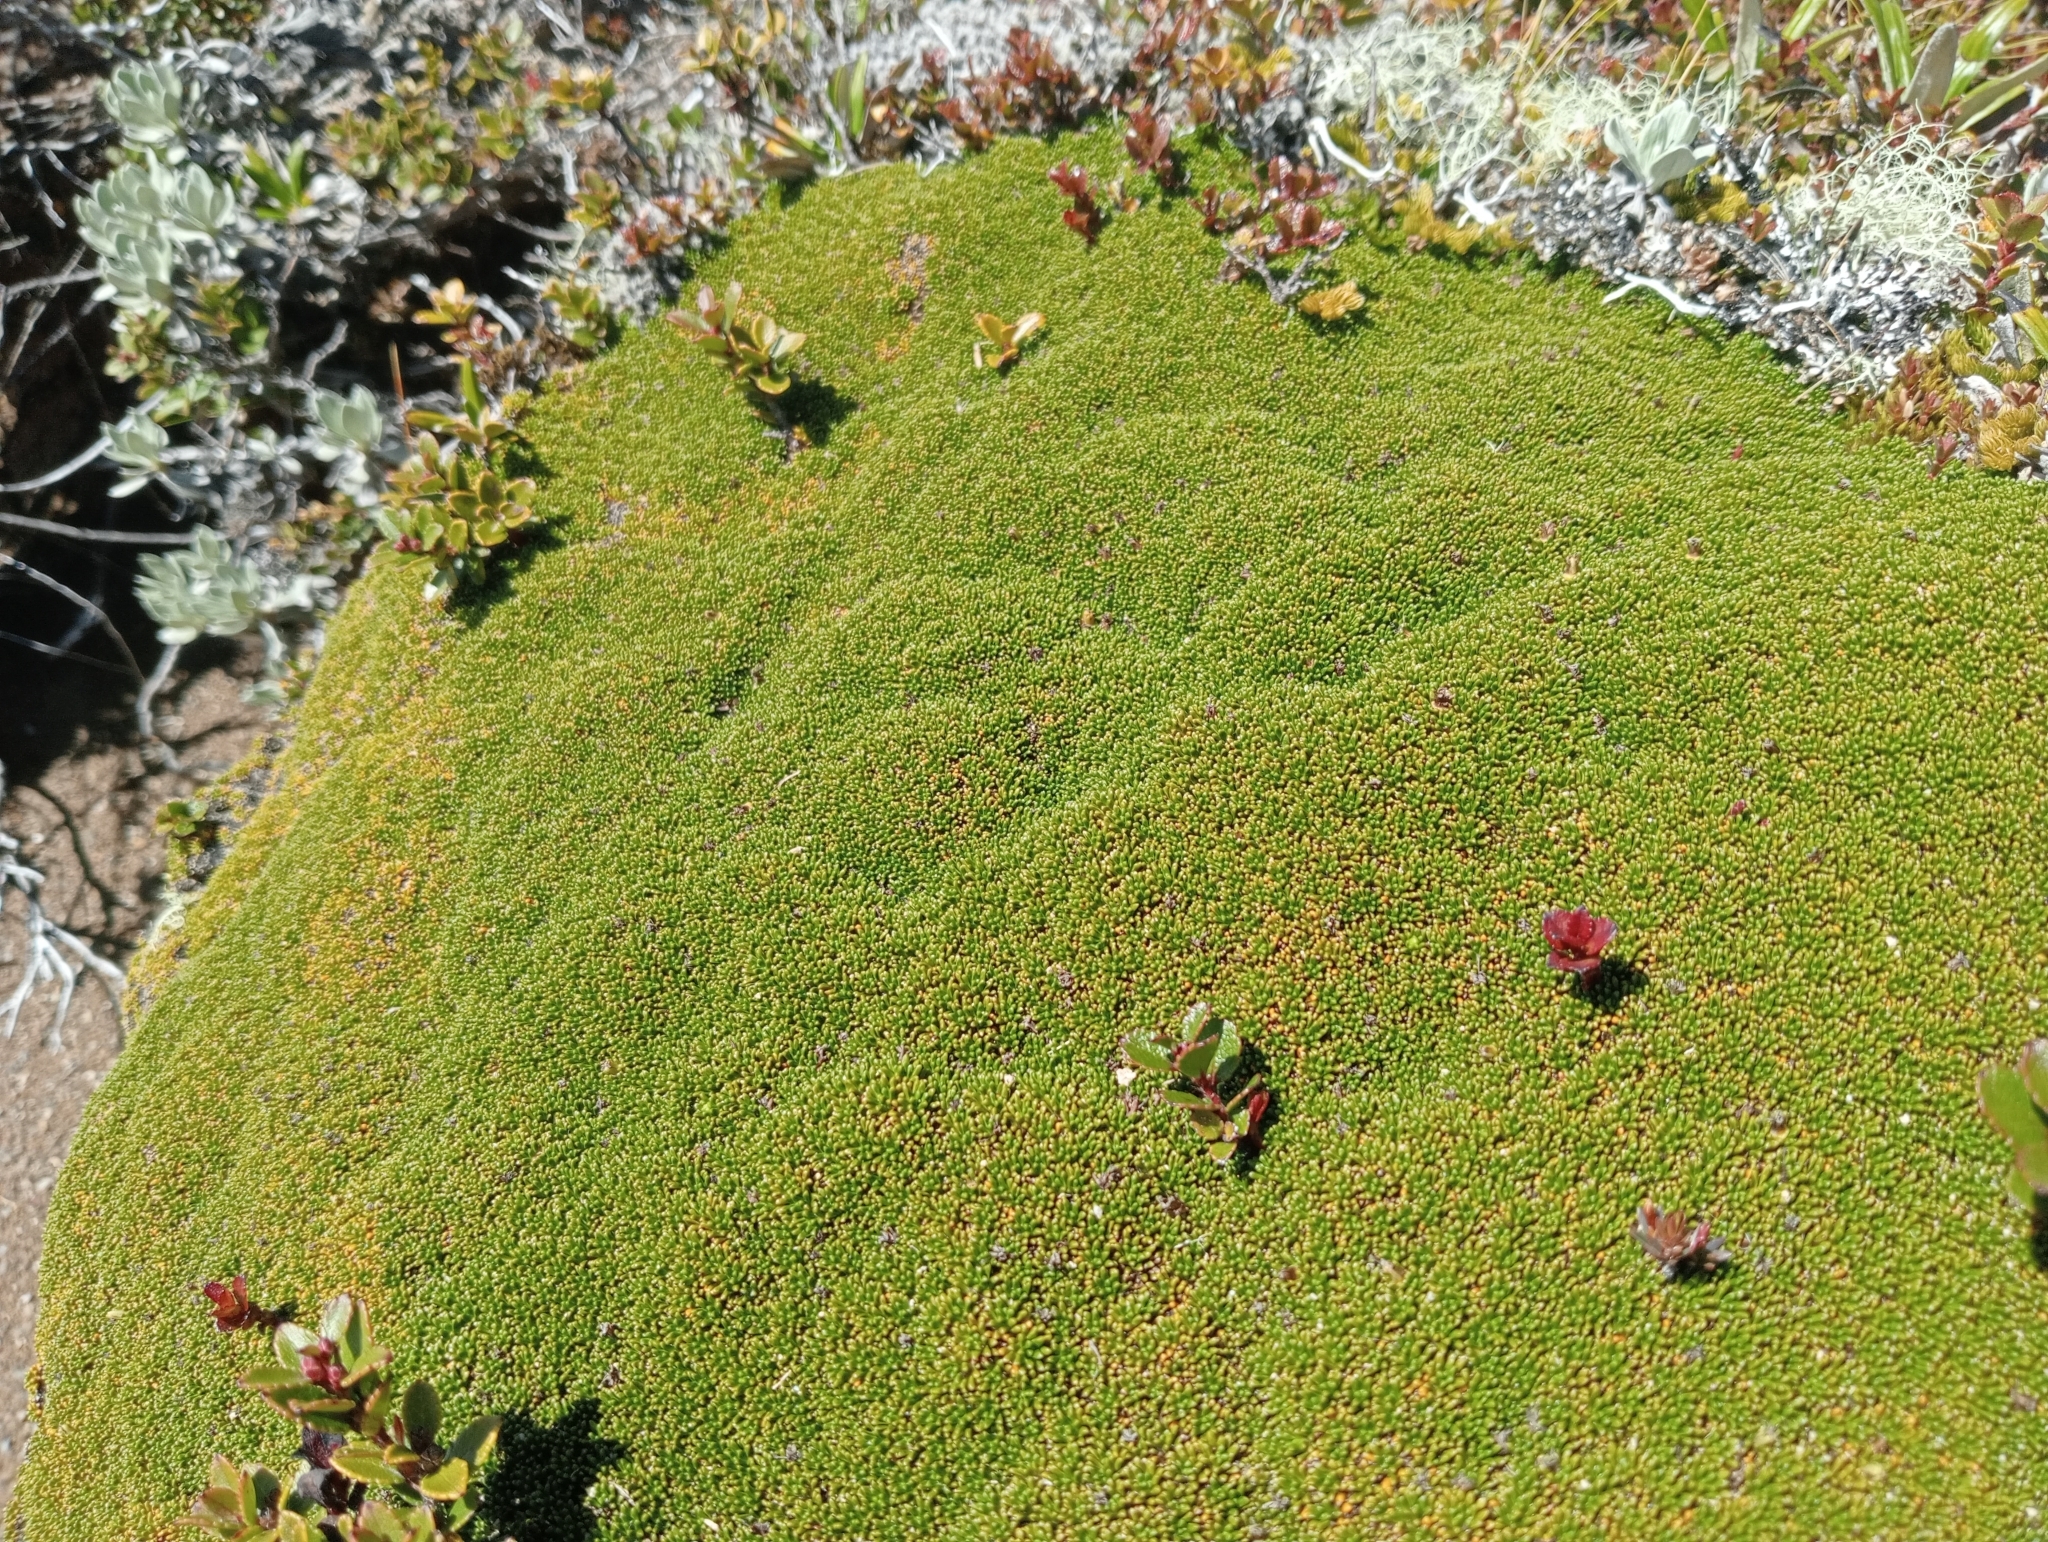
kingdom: Plantae
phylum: Tracheophyta
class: Magnoliopsida
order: Asterales
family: Stylidiaceae
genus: Phyllachne
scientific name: Phyllachne colensoi
